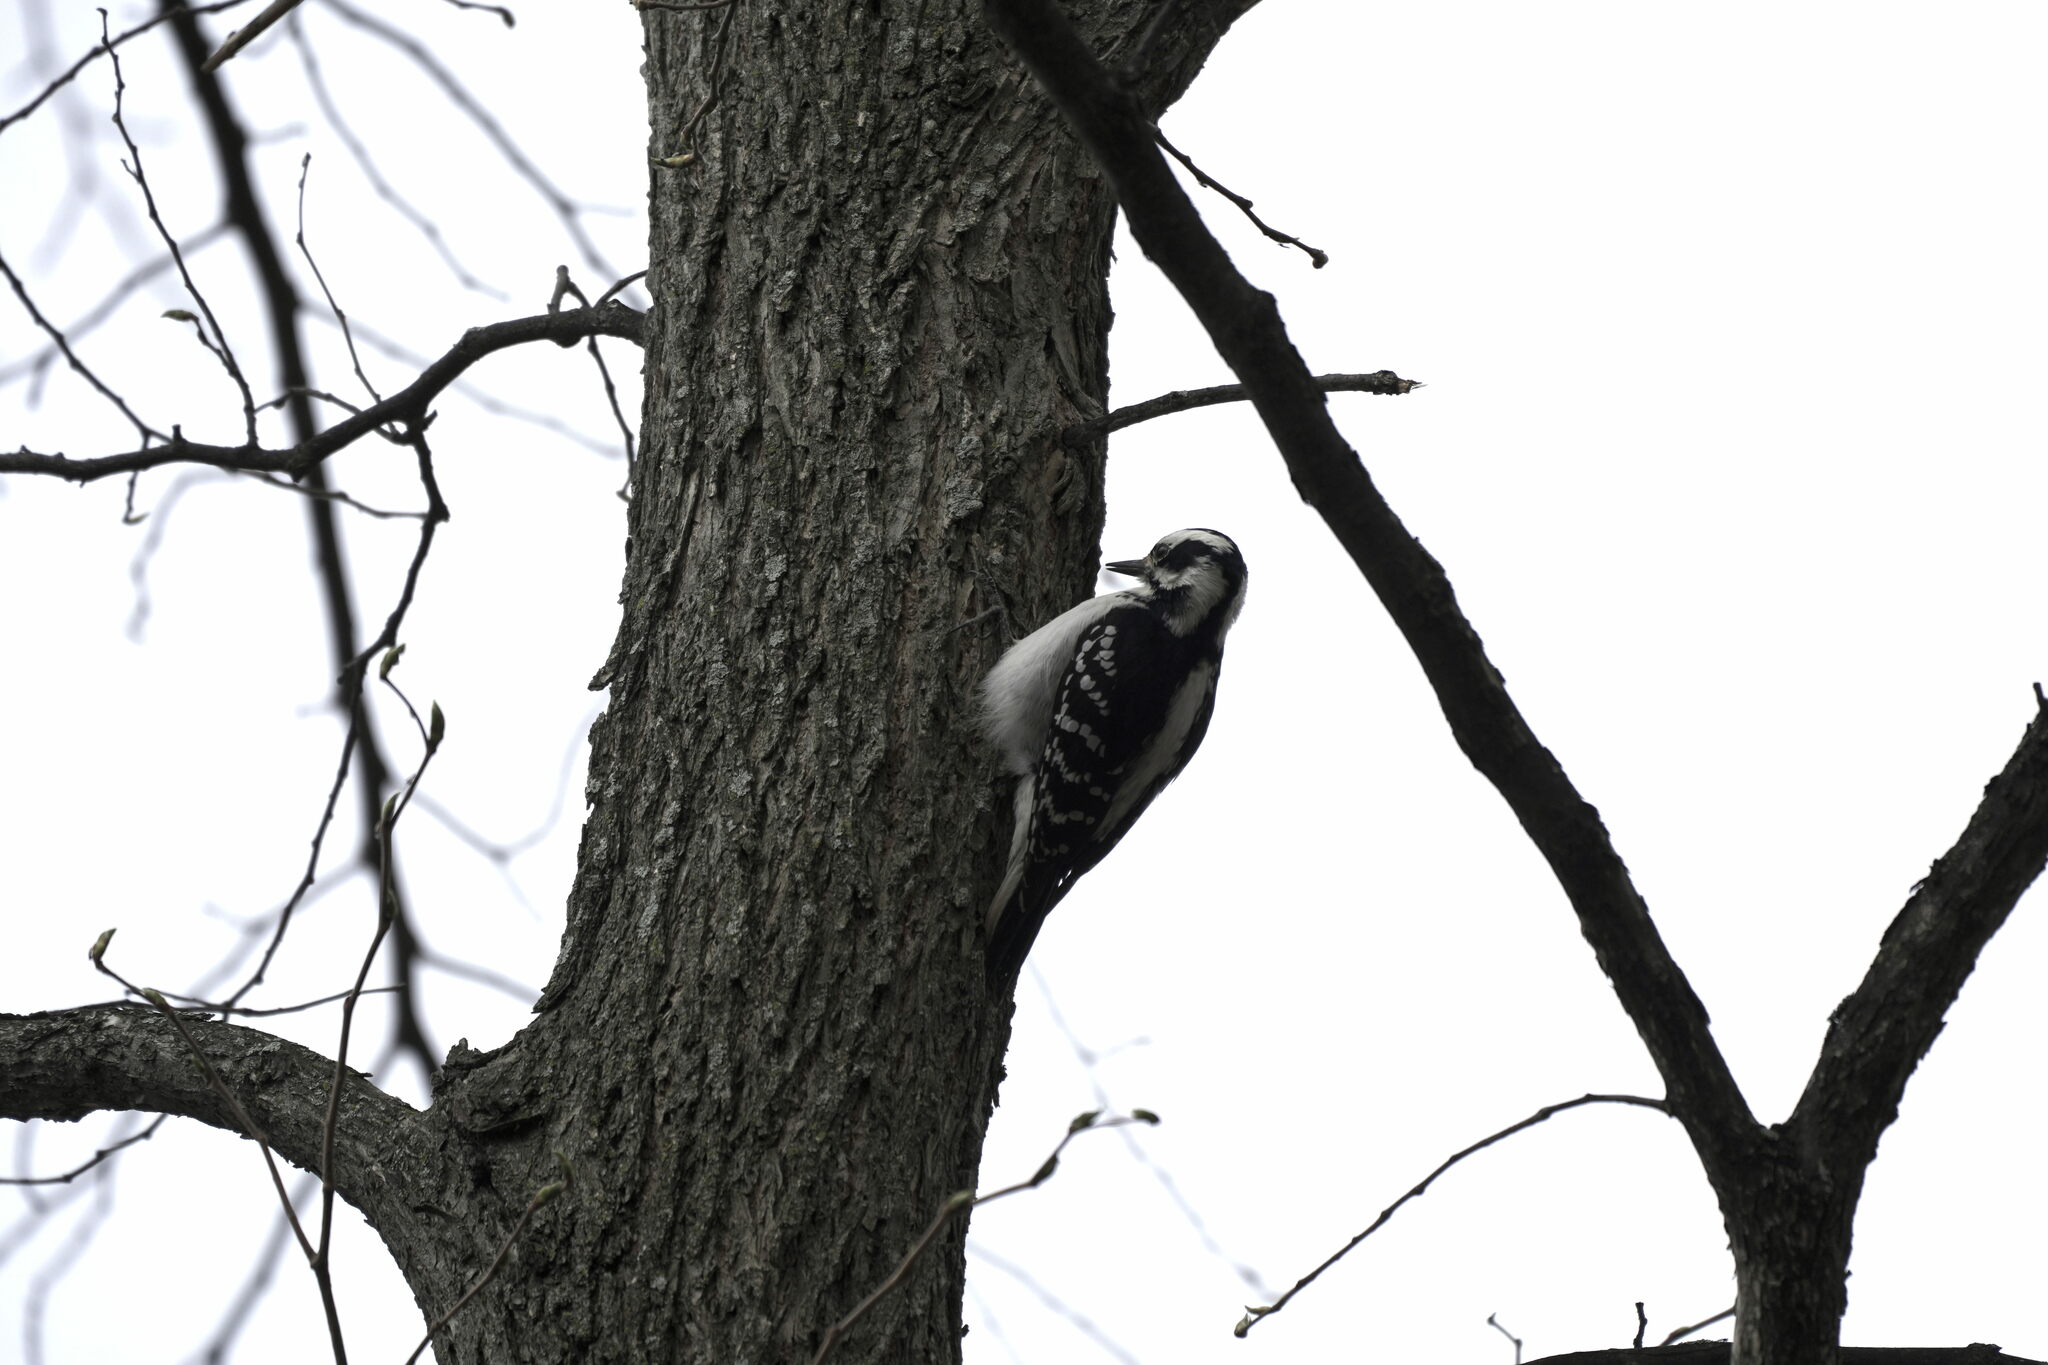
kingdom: Animalia
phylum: Chordata
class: Aves
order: Piciformes
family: Picidae
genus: Dryobates
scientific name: Dryobates pubescens
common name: Downy woodpecker
